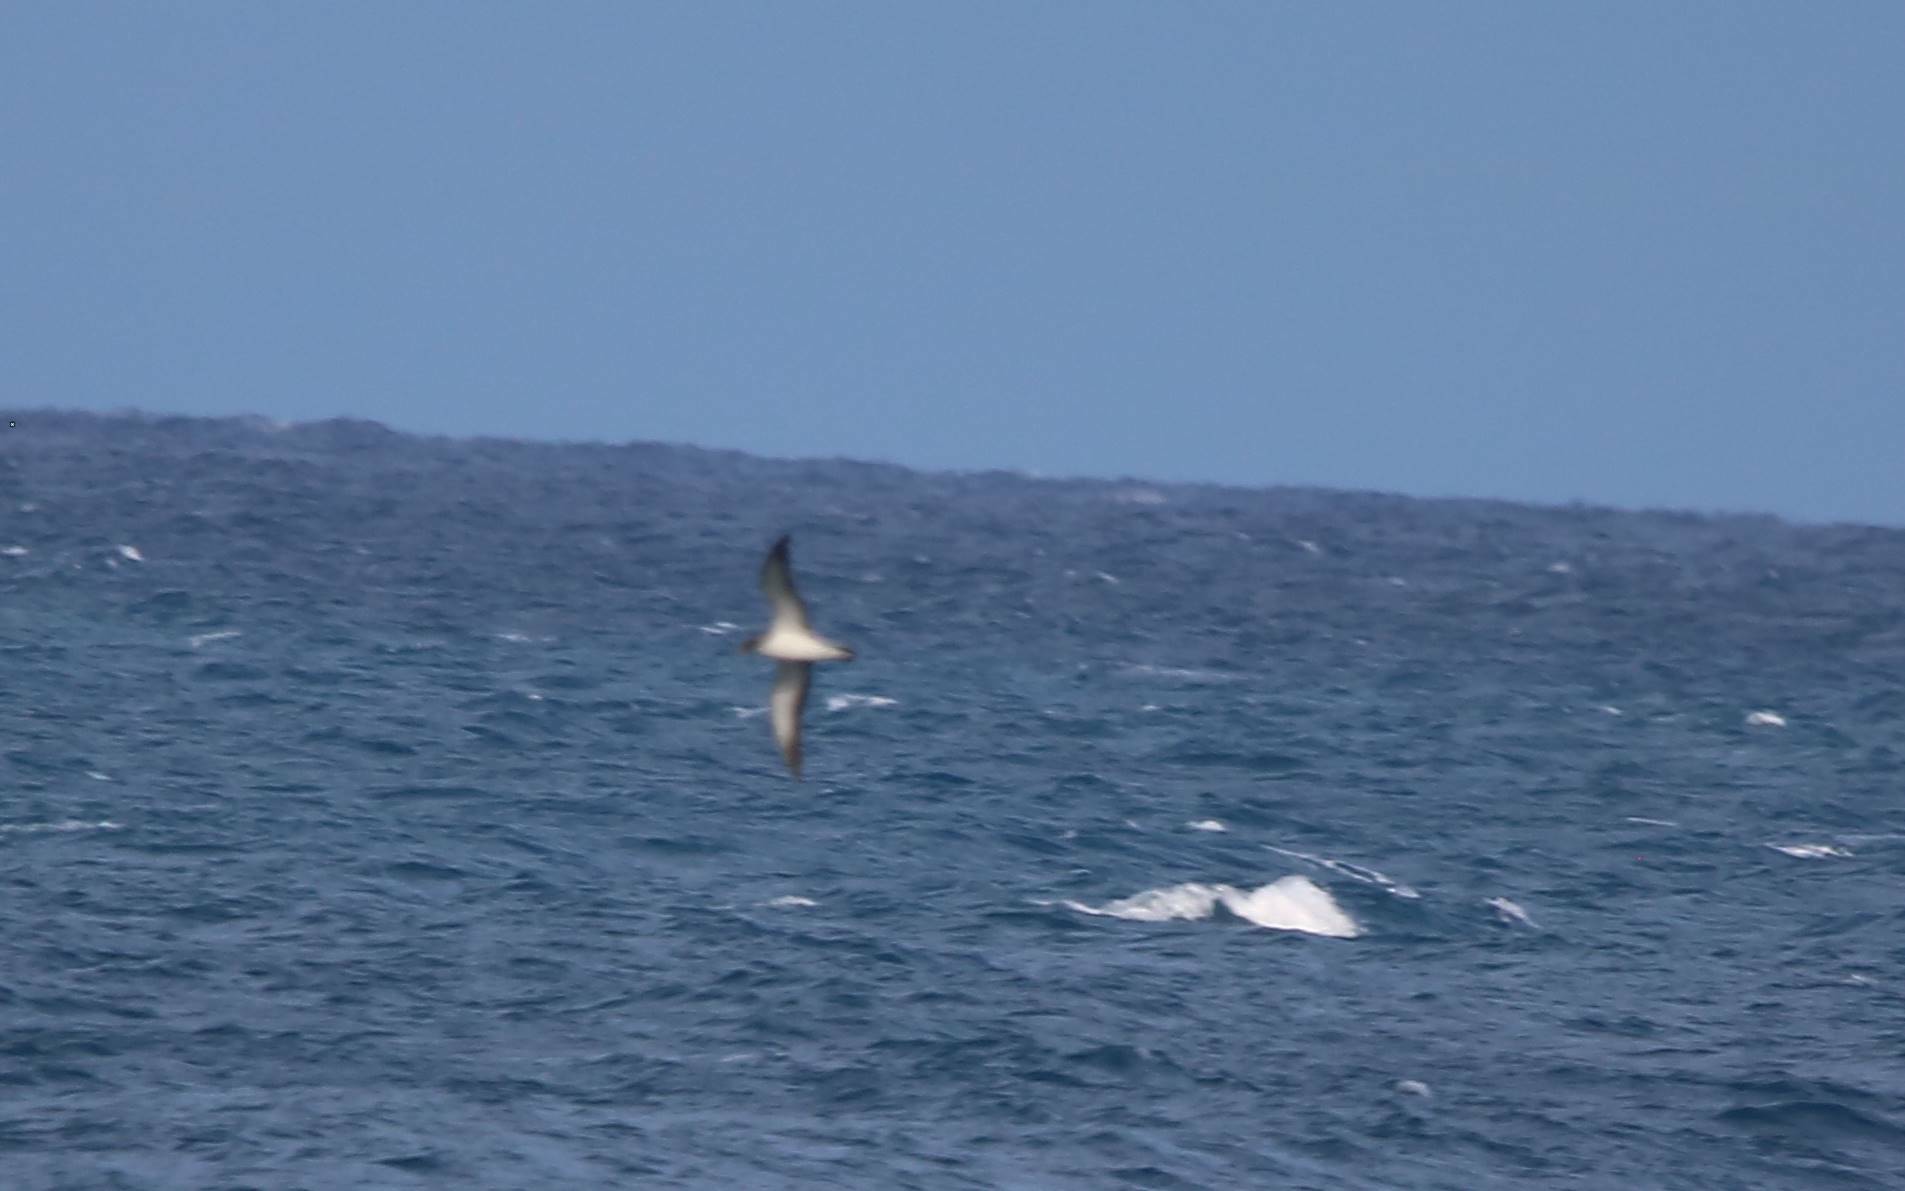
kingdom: Animalia
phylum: Chordata
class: Aves
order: Procellariiformes
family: Procellariidae
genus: Calonectris
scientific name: Calonectris diomedea
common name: Cory's shearwater
